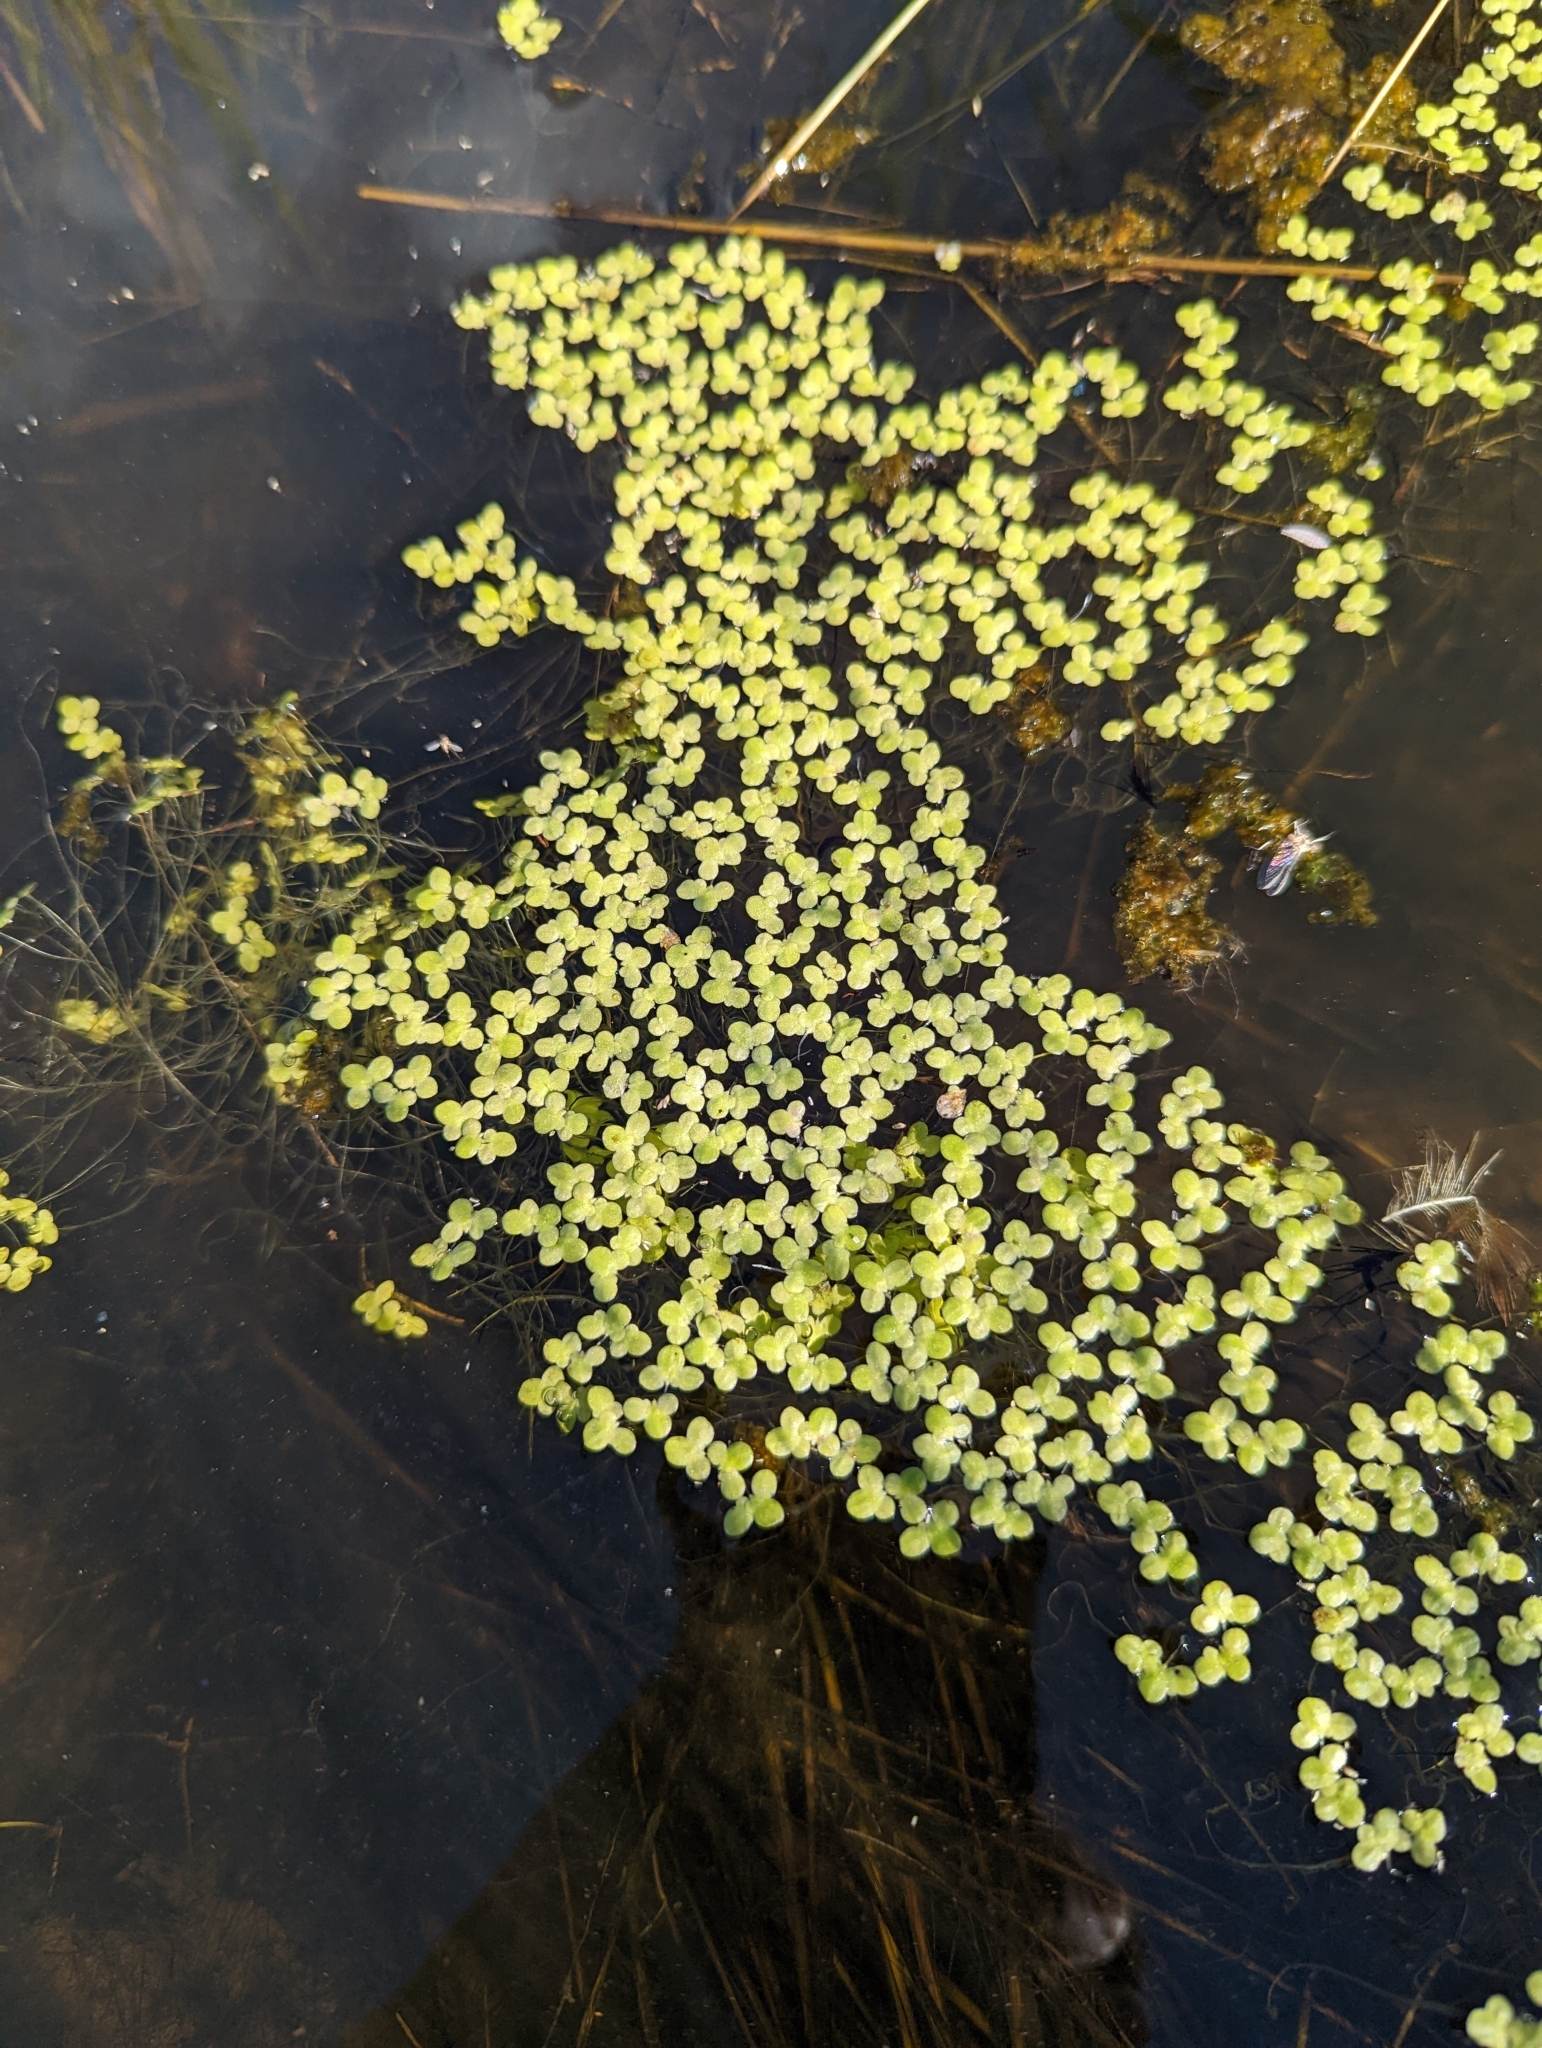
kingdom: Plantae
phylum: Tracheophyta
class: Liliopsida
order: Alismatales
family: Araceae
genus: Lemna
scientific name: Lemna minor
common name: Common duckweed
